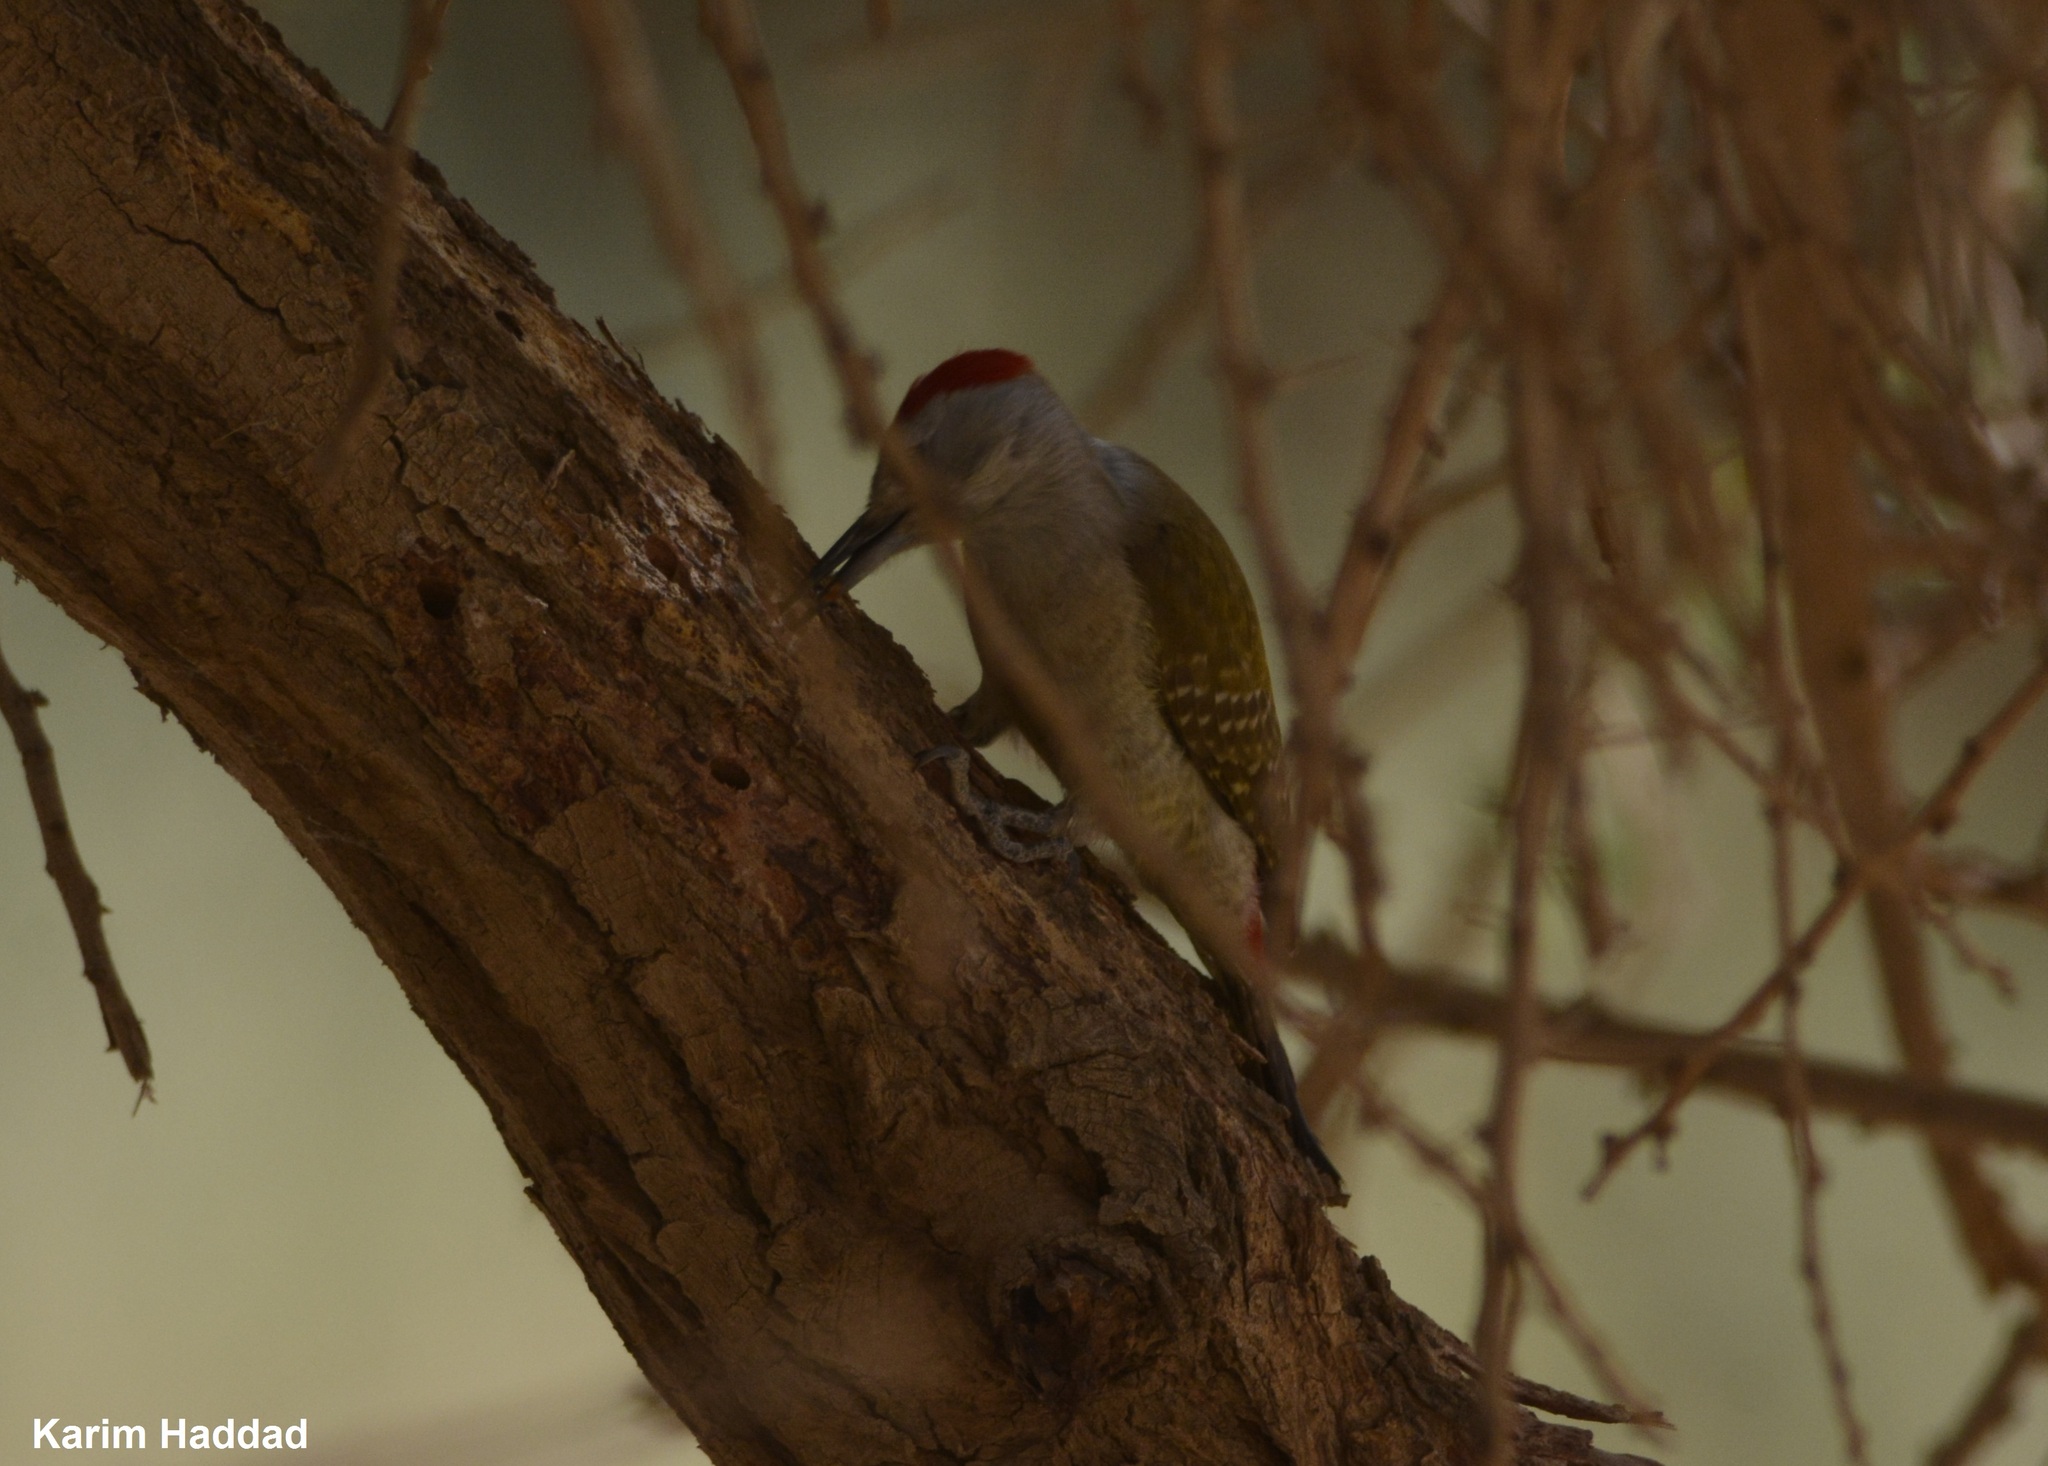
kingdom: Animalia
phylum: Chordata
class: Aves
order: Piciformes
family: Picidae
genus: Dendropicos
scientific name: Dendropicos goertae
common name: African grey woodpecker
